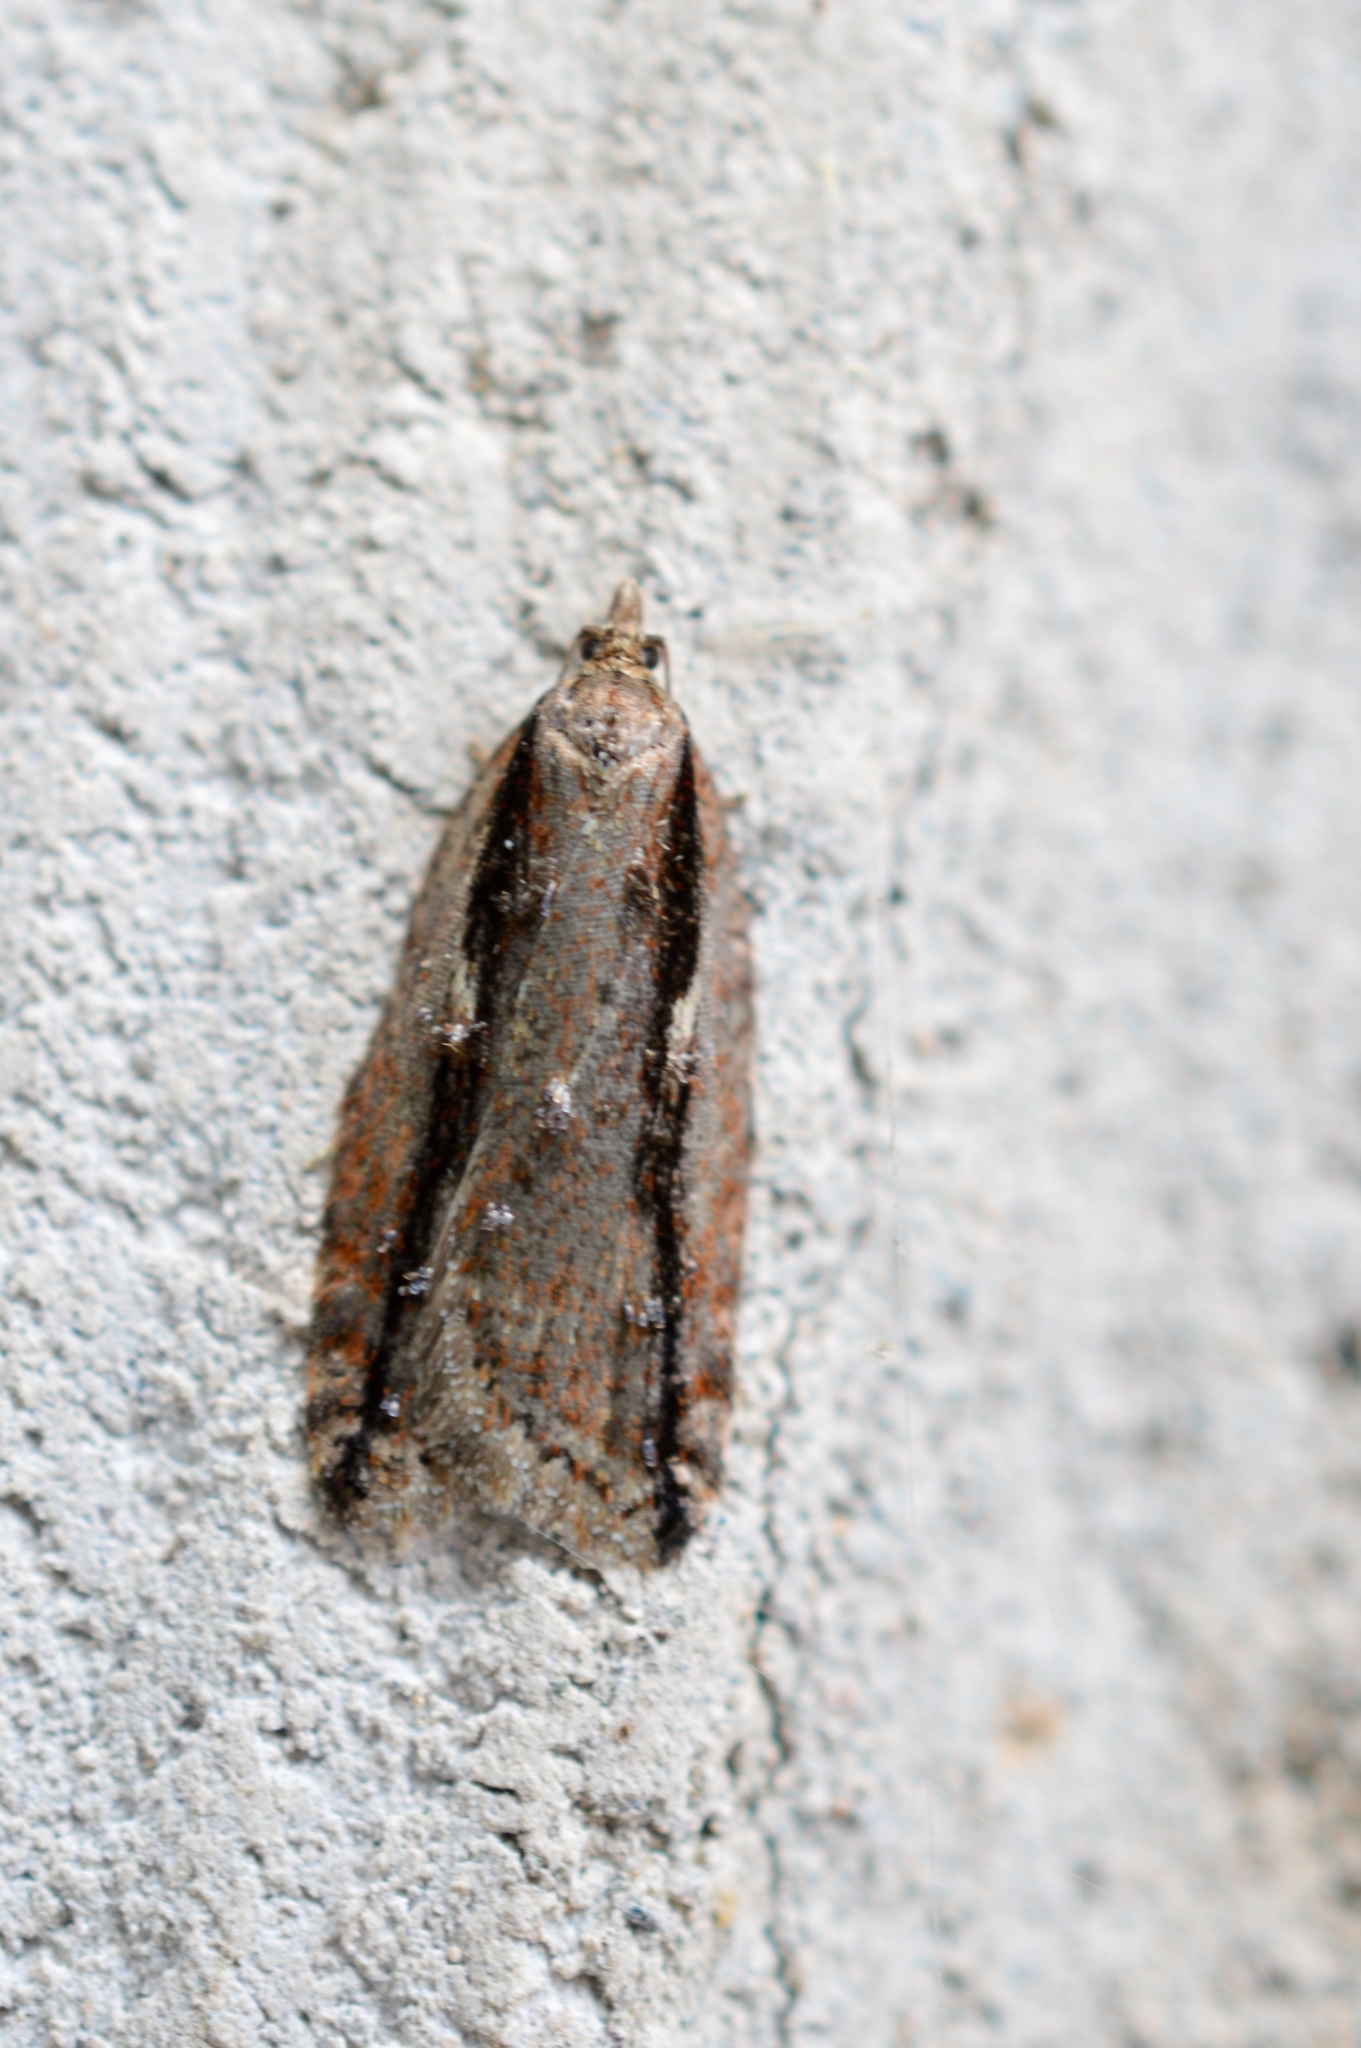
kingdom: Animalia
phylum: Arthropoda
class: Insecta
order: Lepidoptera
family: Tortricidae
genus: Acleris
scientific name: Acleris umbrana
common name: Dark-streaked button
